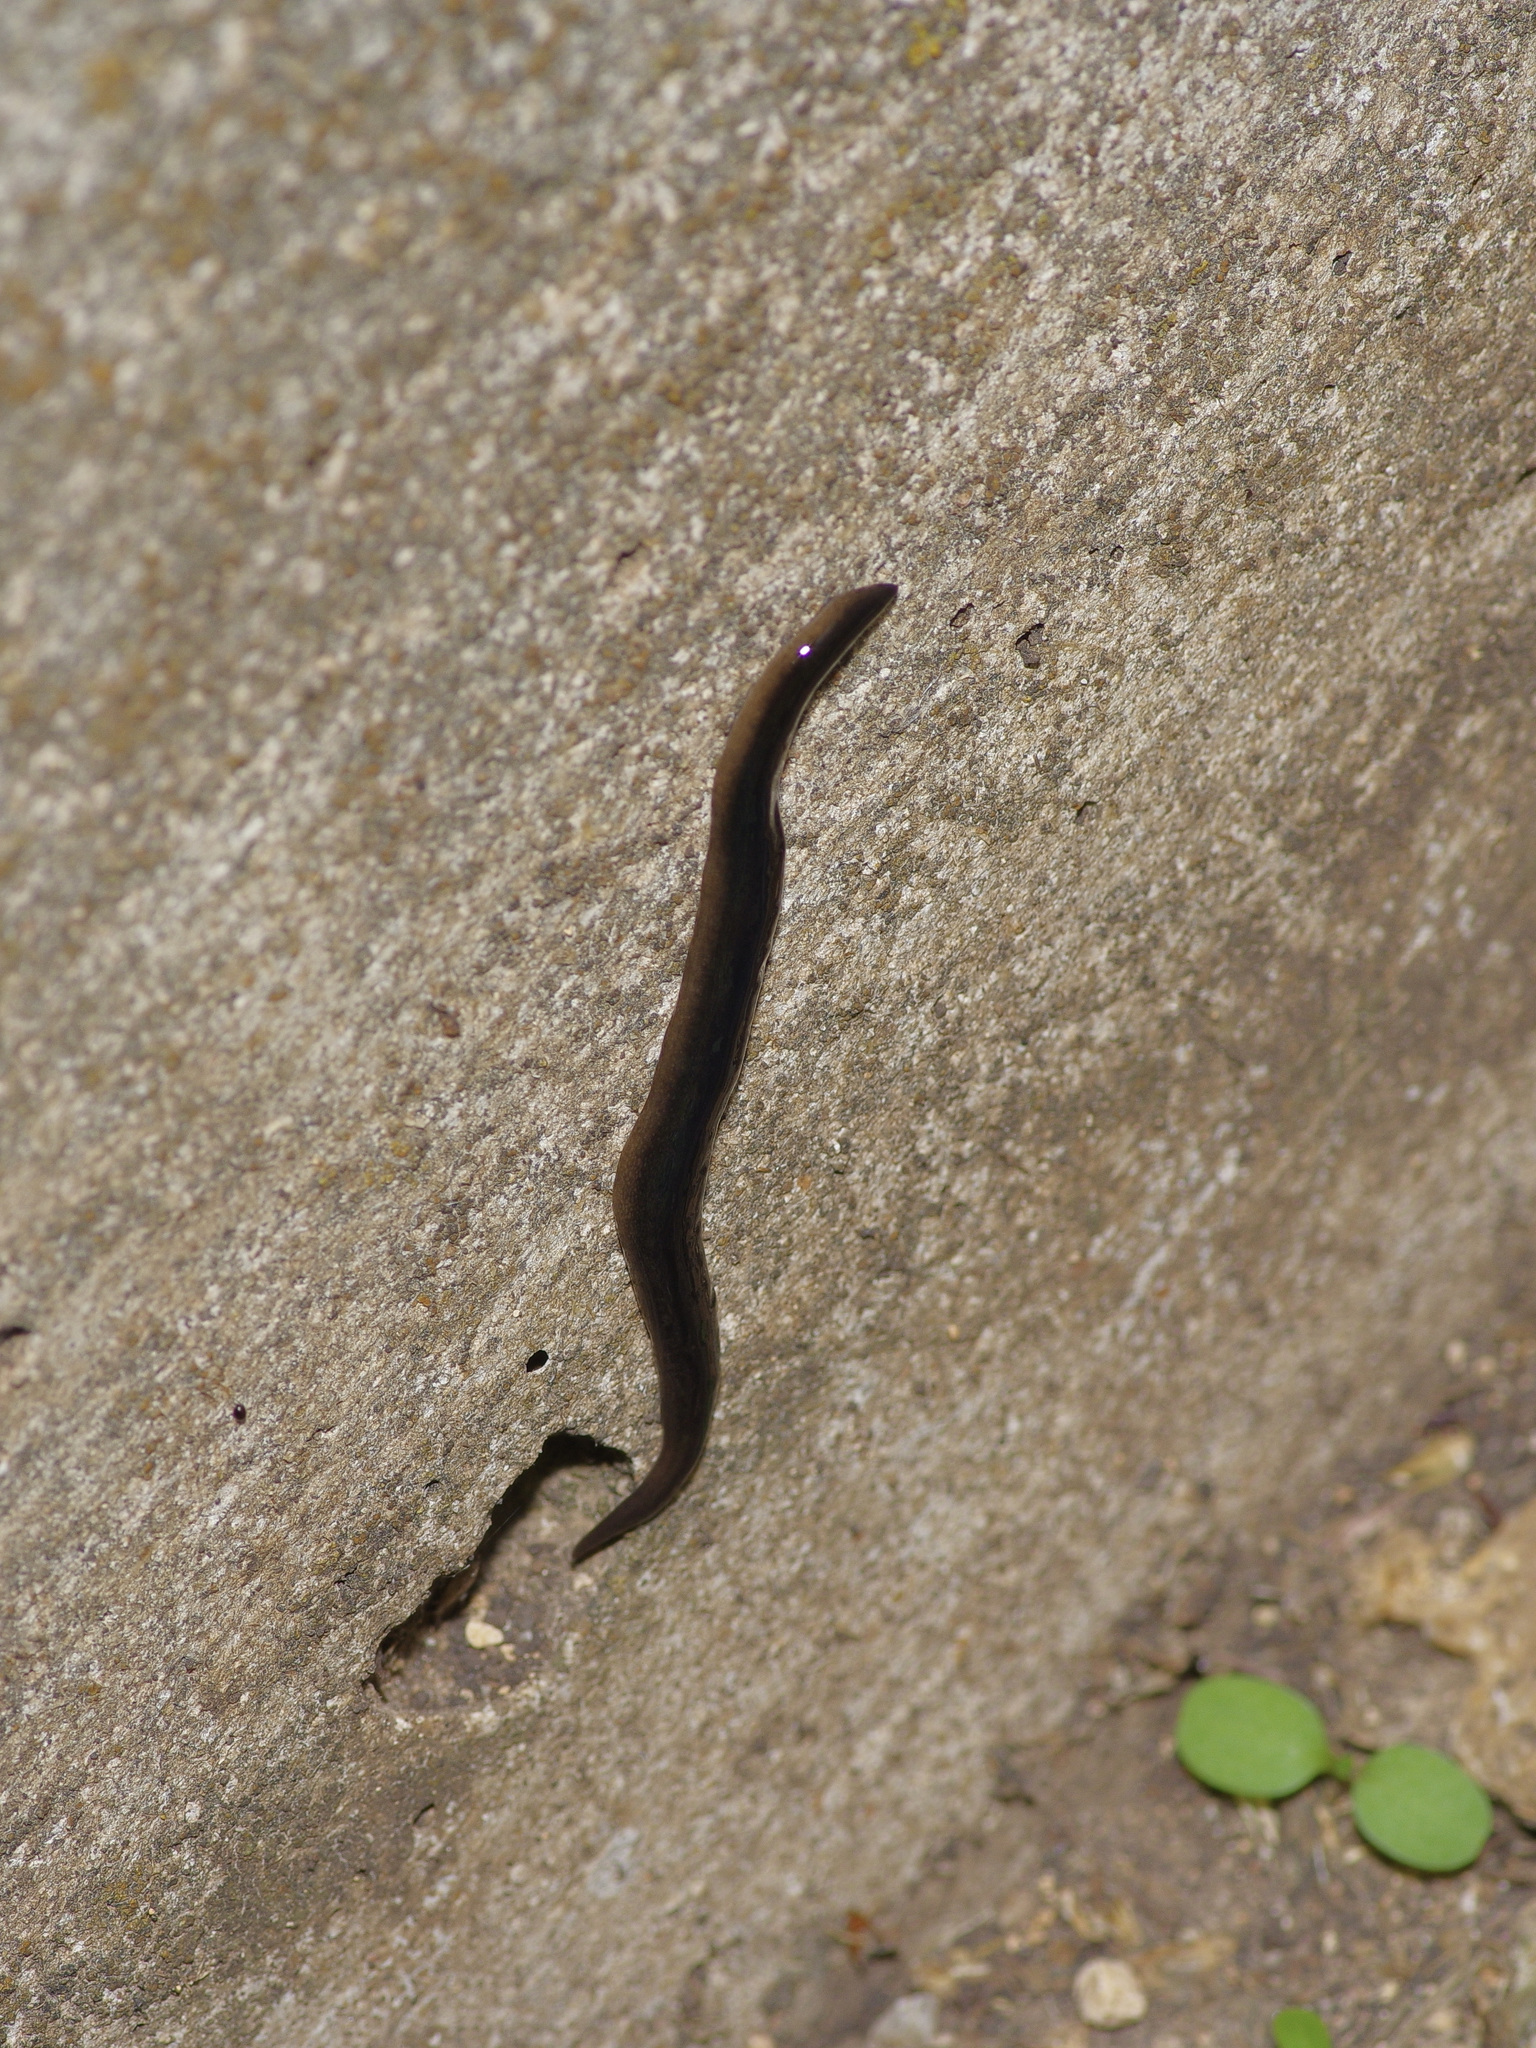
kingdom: Animalia
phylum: Platyhelminthes
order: Tricladida
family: Geoplanidae
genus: Obama
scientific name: Obama nungara
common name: Obama flatworm
